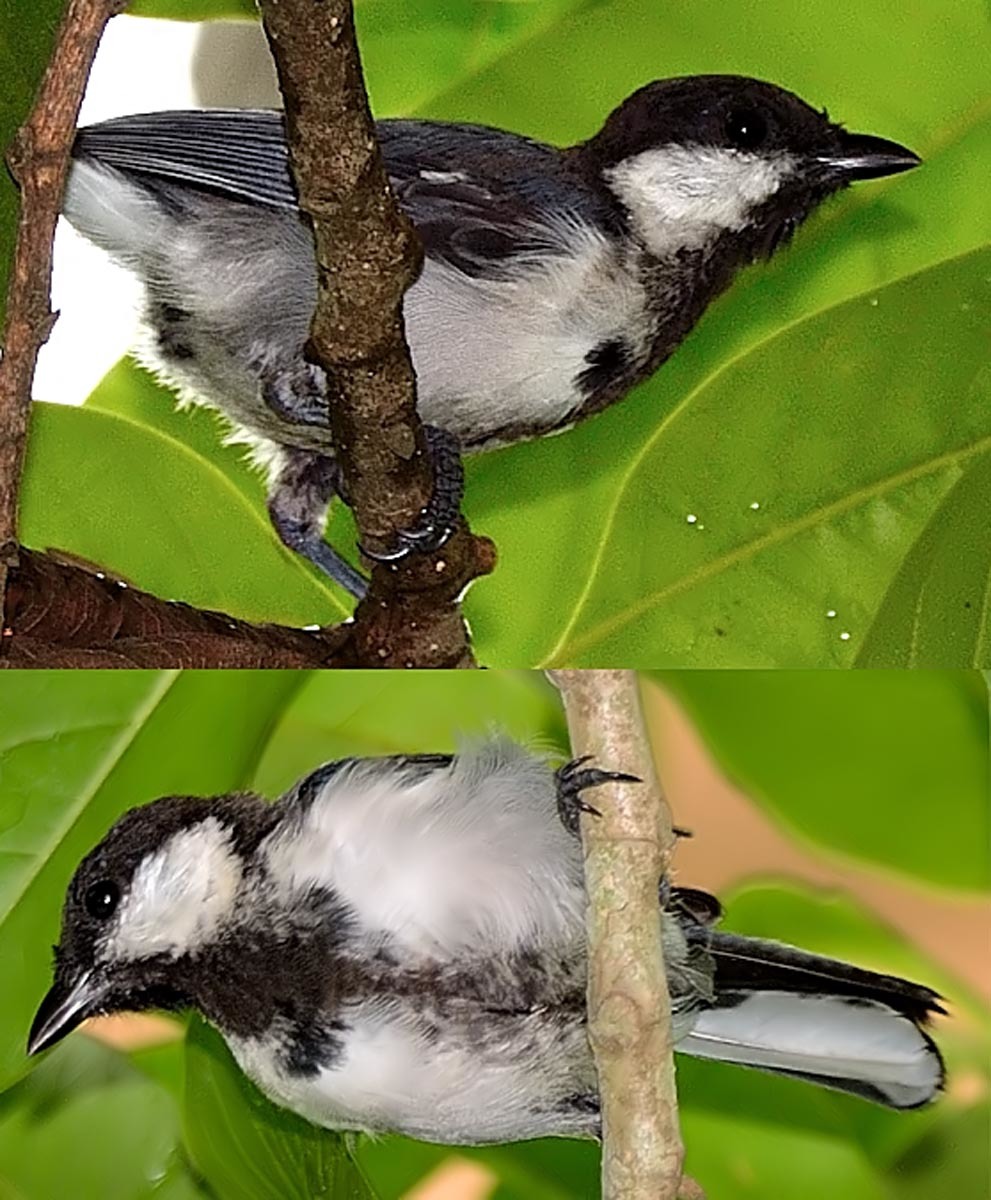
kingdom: Animalia
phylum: Chordata
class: Aves
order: Passeriformes
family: Paridae
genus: Parus
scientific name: Parus cinereus
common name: Cinereous tit
